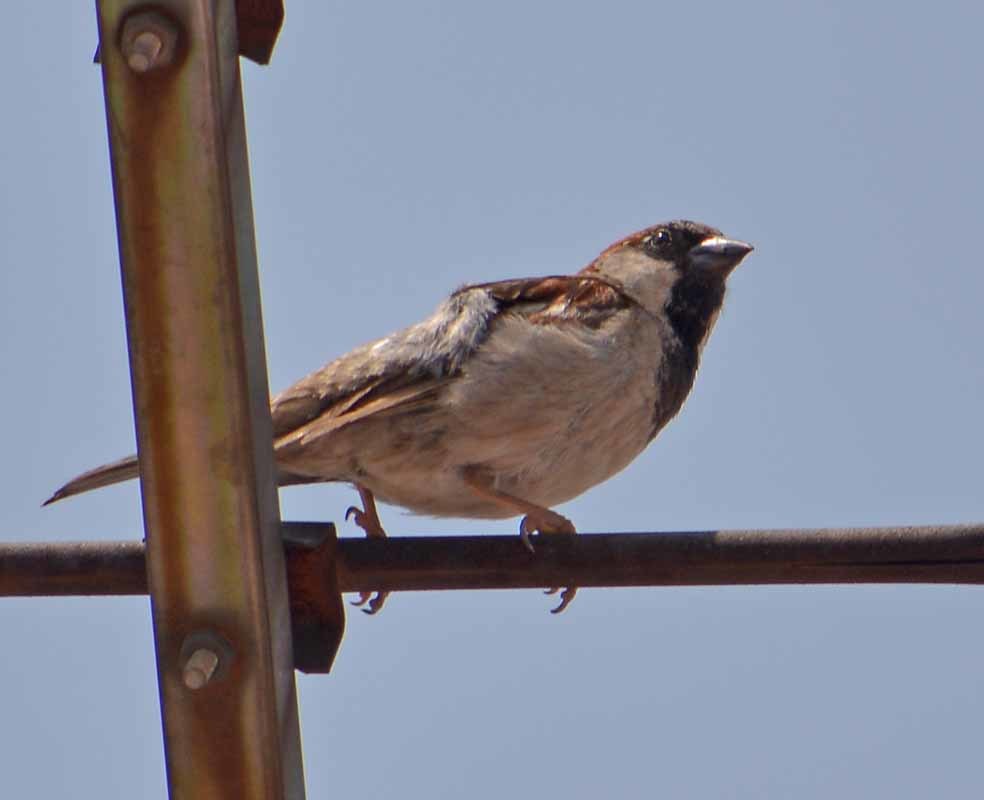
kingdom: Animalia
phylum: Chordata
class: Aves
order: Passeriformes
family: Passeridae
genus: Passer
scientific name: Passer domesticus
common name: House sparrow
